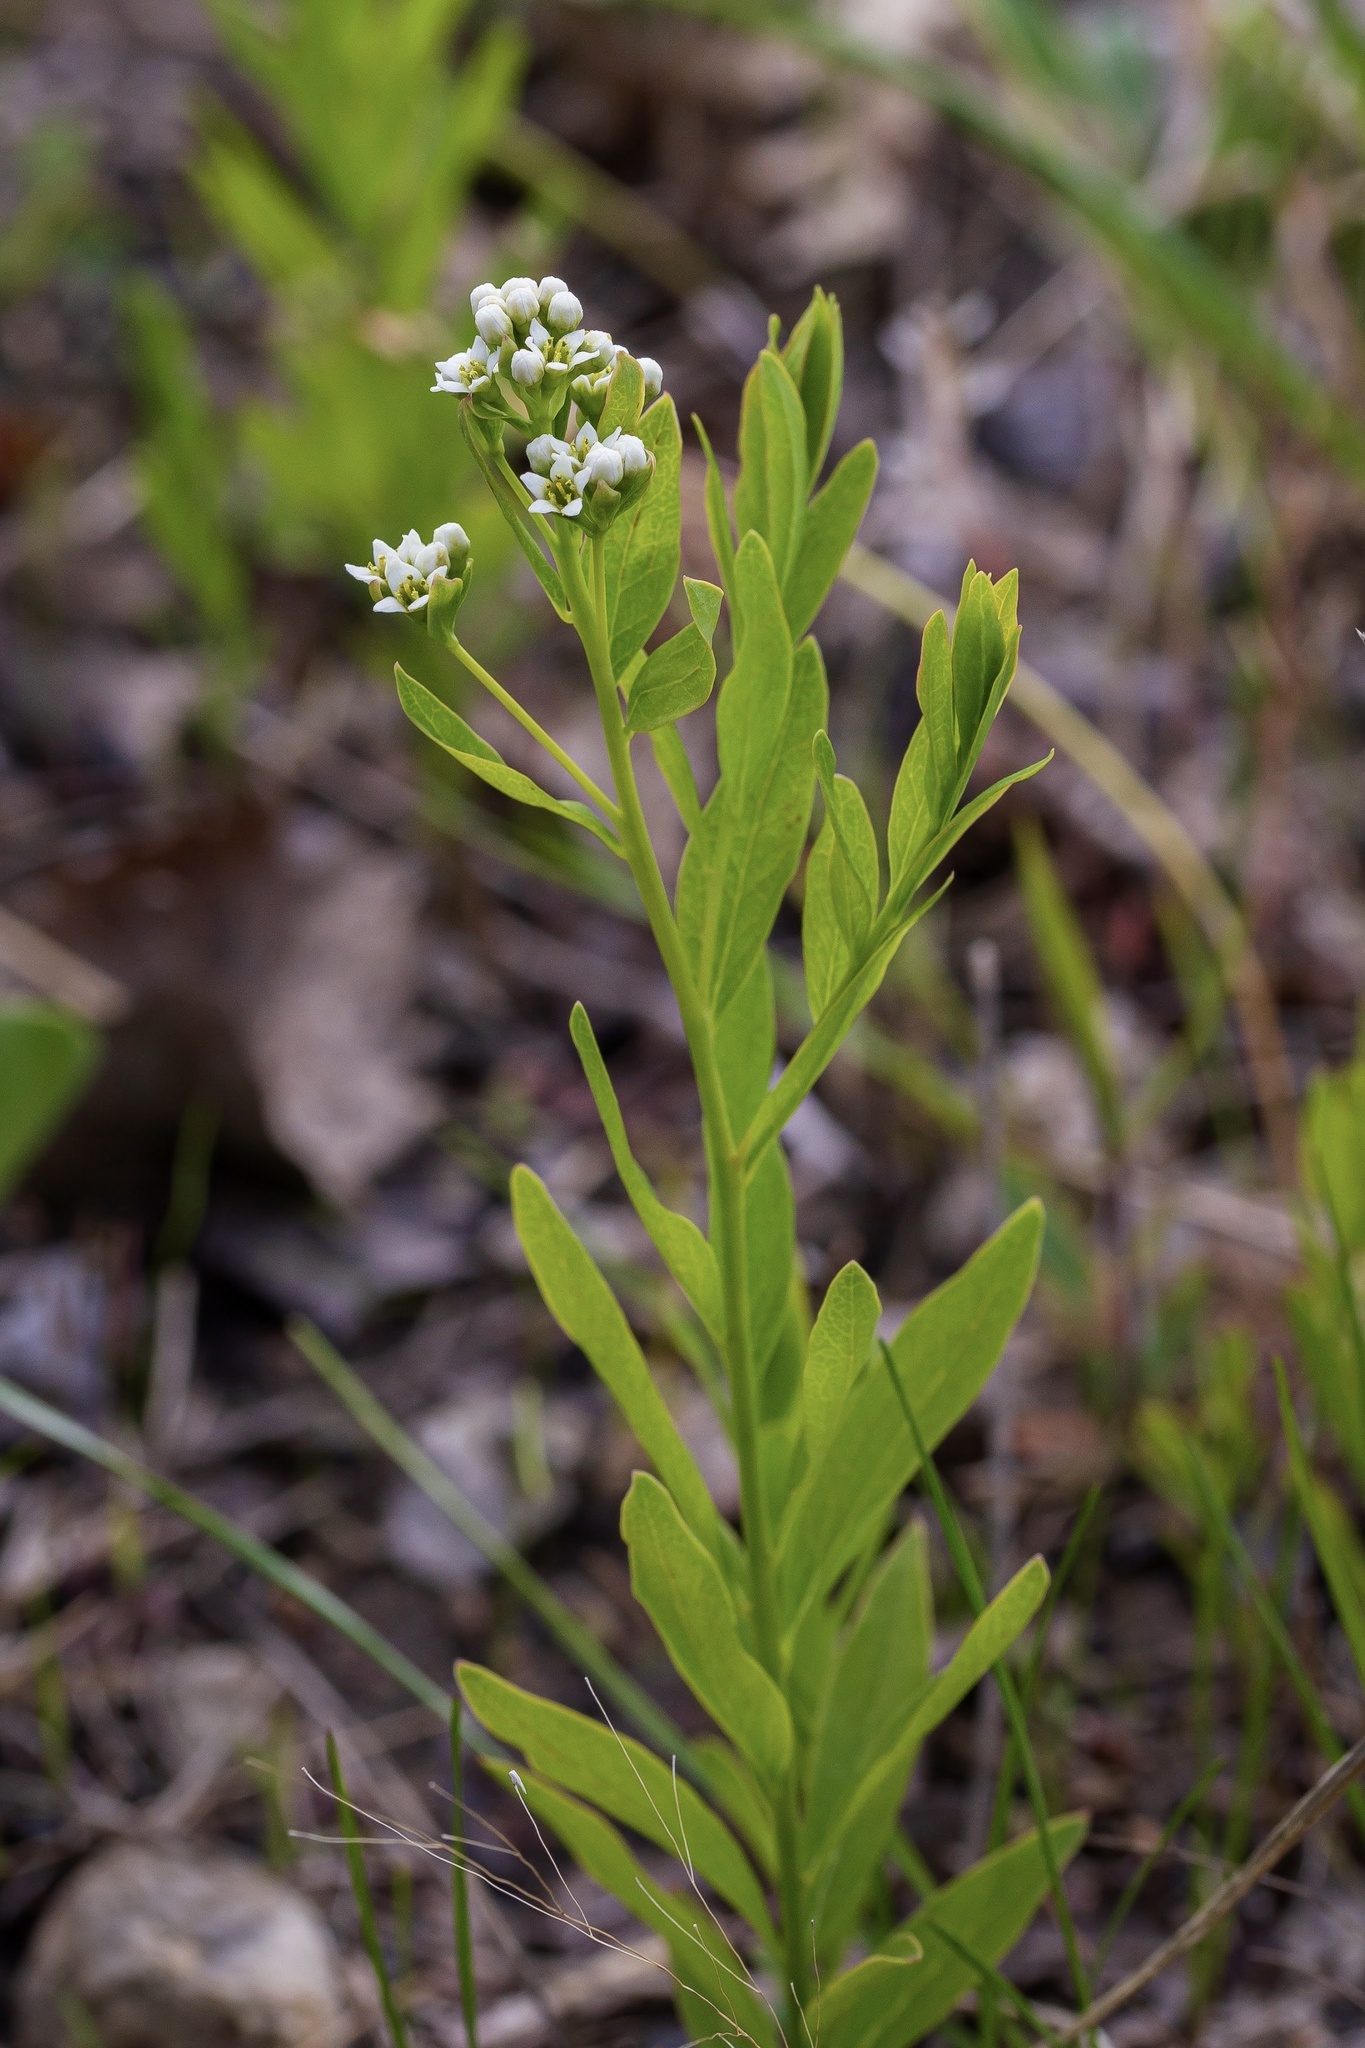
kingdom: Plantae
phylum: Tracheophyta
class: Magnoliopsida
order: Santalales
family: Comandraceae
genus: Comandra
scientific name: Comandra umbellata
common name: Bastard toadflax
